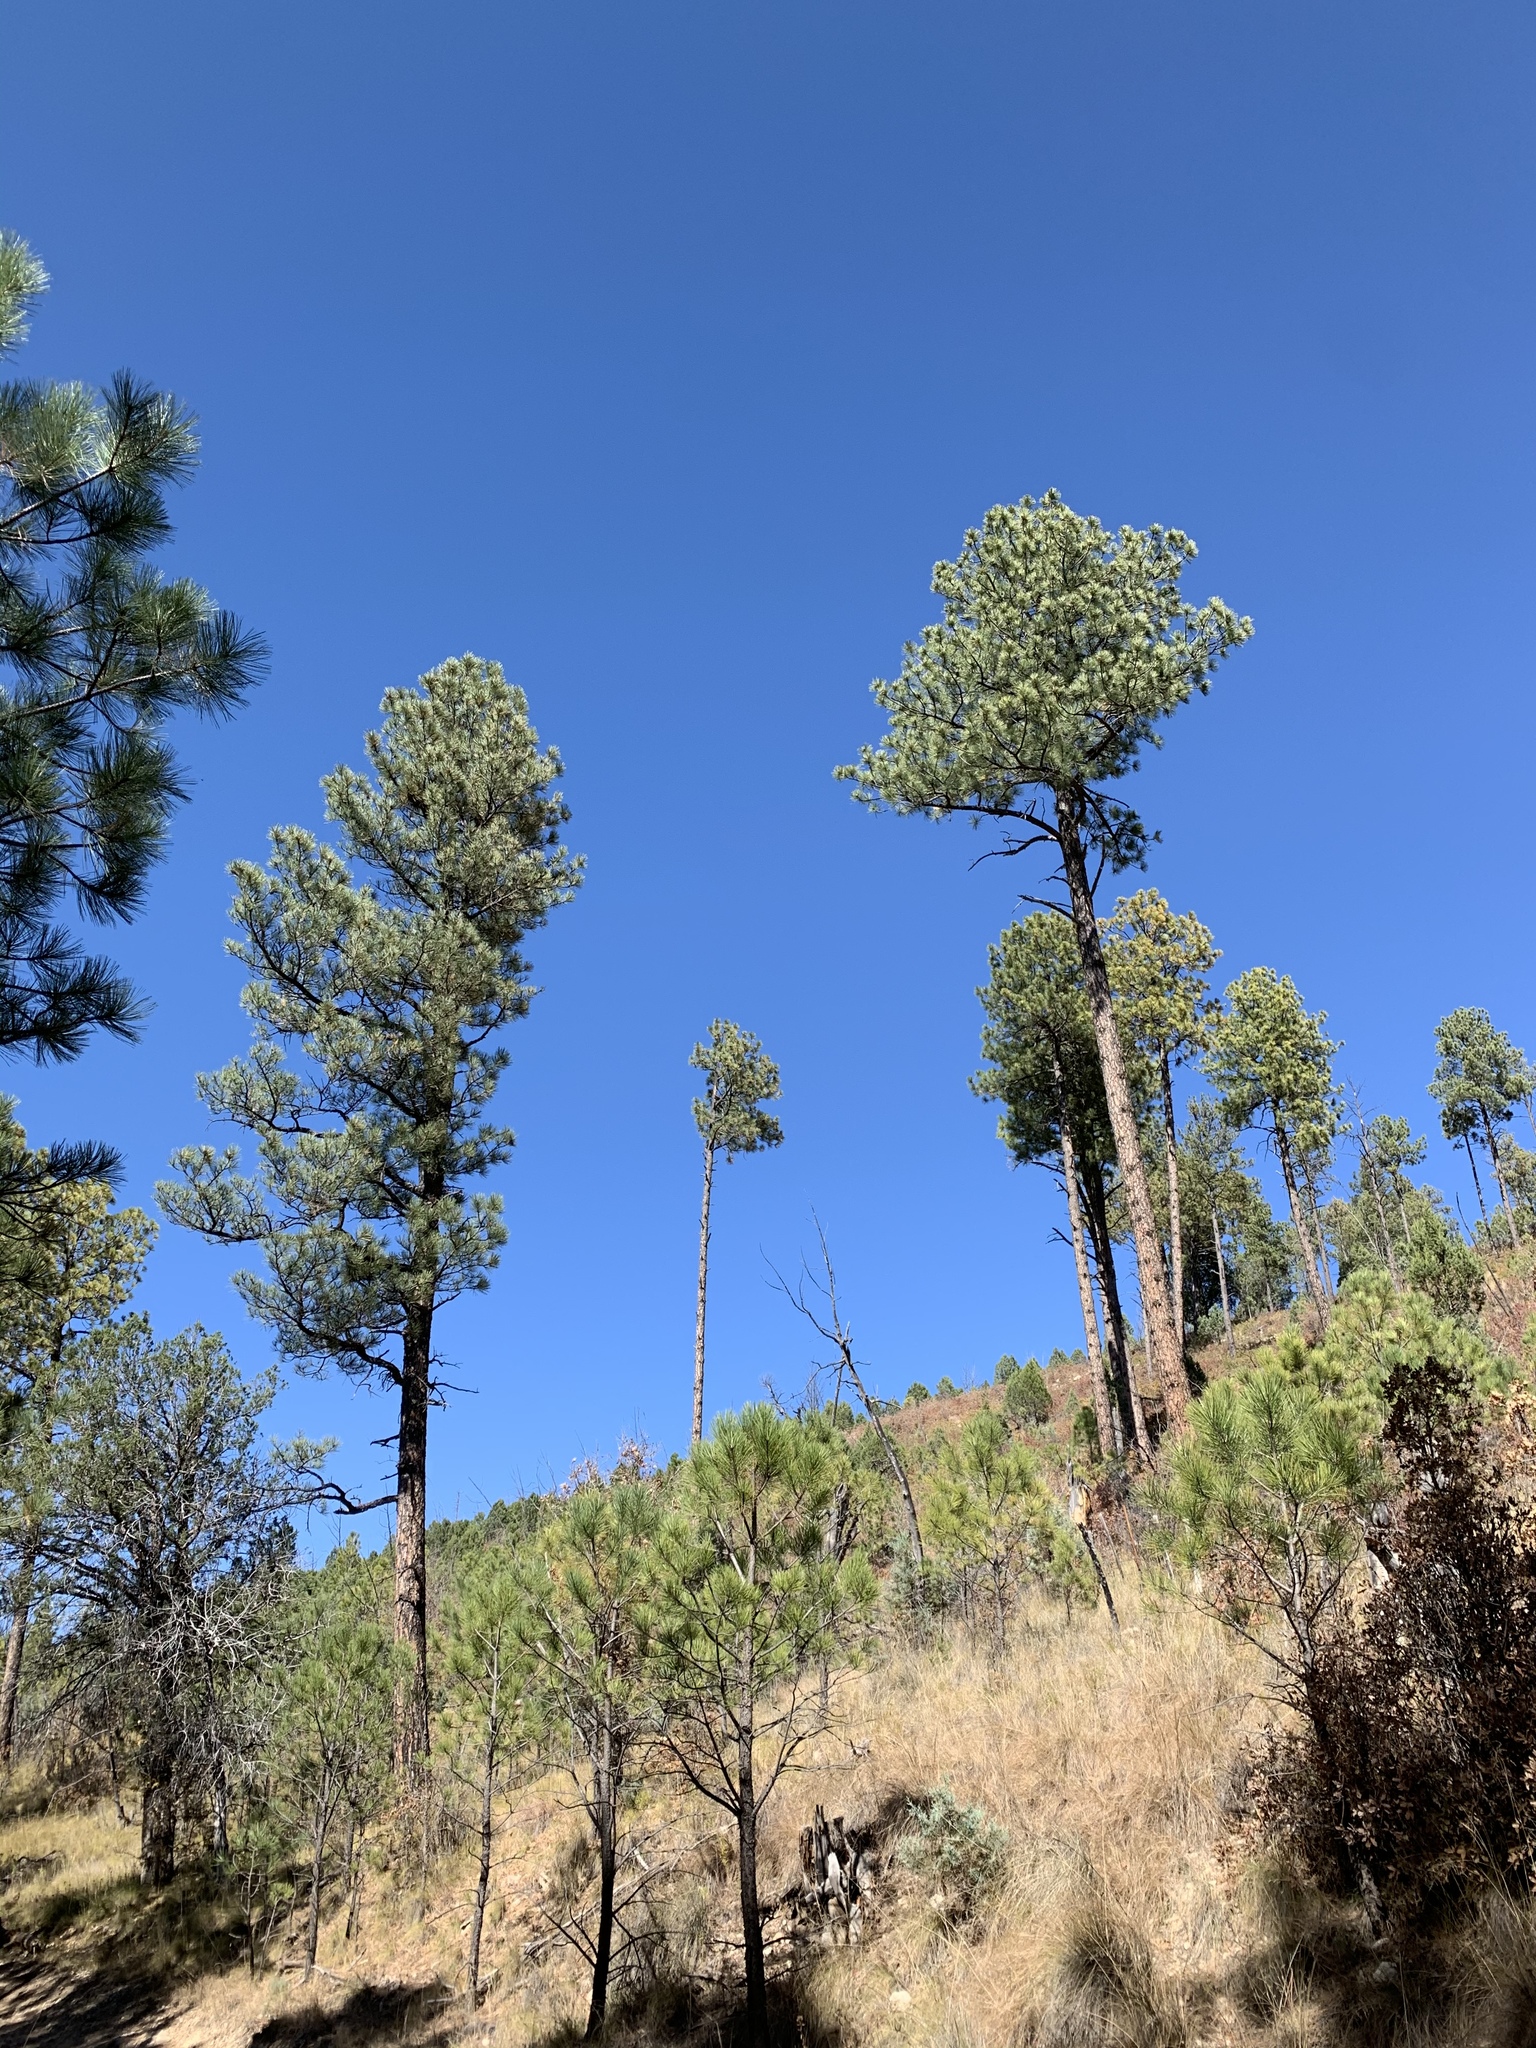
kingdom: Plantae
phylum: Tracheophyta
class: Pinopsida
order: Pinales
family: Pinaceae
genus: Pinus
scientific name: Pinus ponderosa
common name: Western yellow-pine
